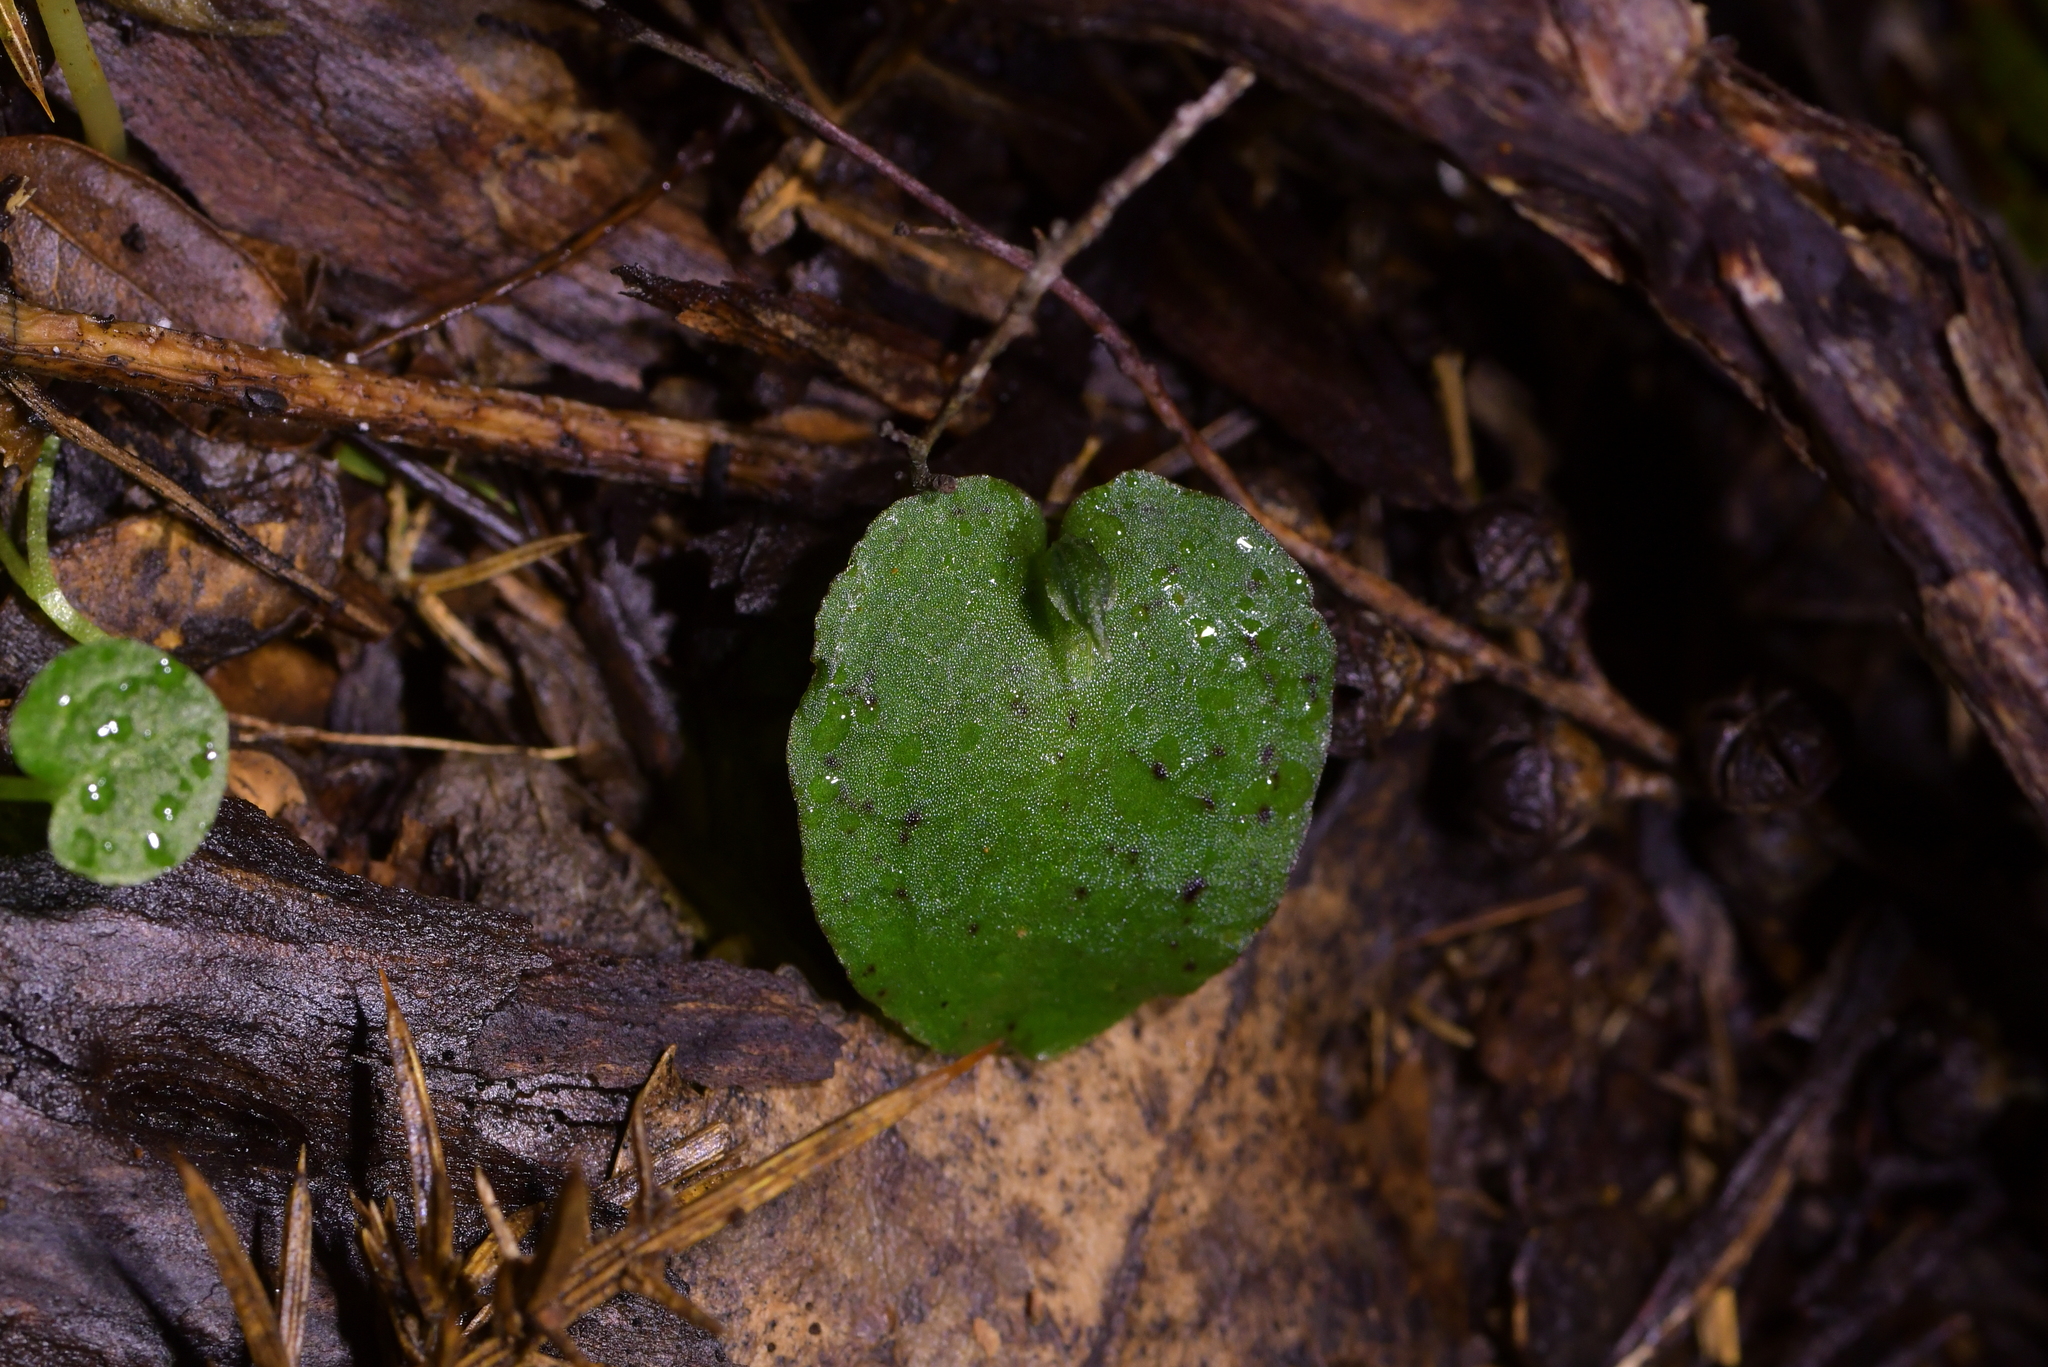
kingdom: Plantae
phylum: Tracheophyta
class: Liliopsida
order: Asparagales
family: Orchidaceae
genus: Corybas
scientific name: Corybas oblongus
